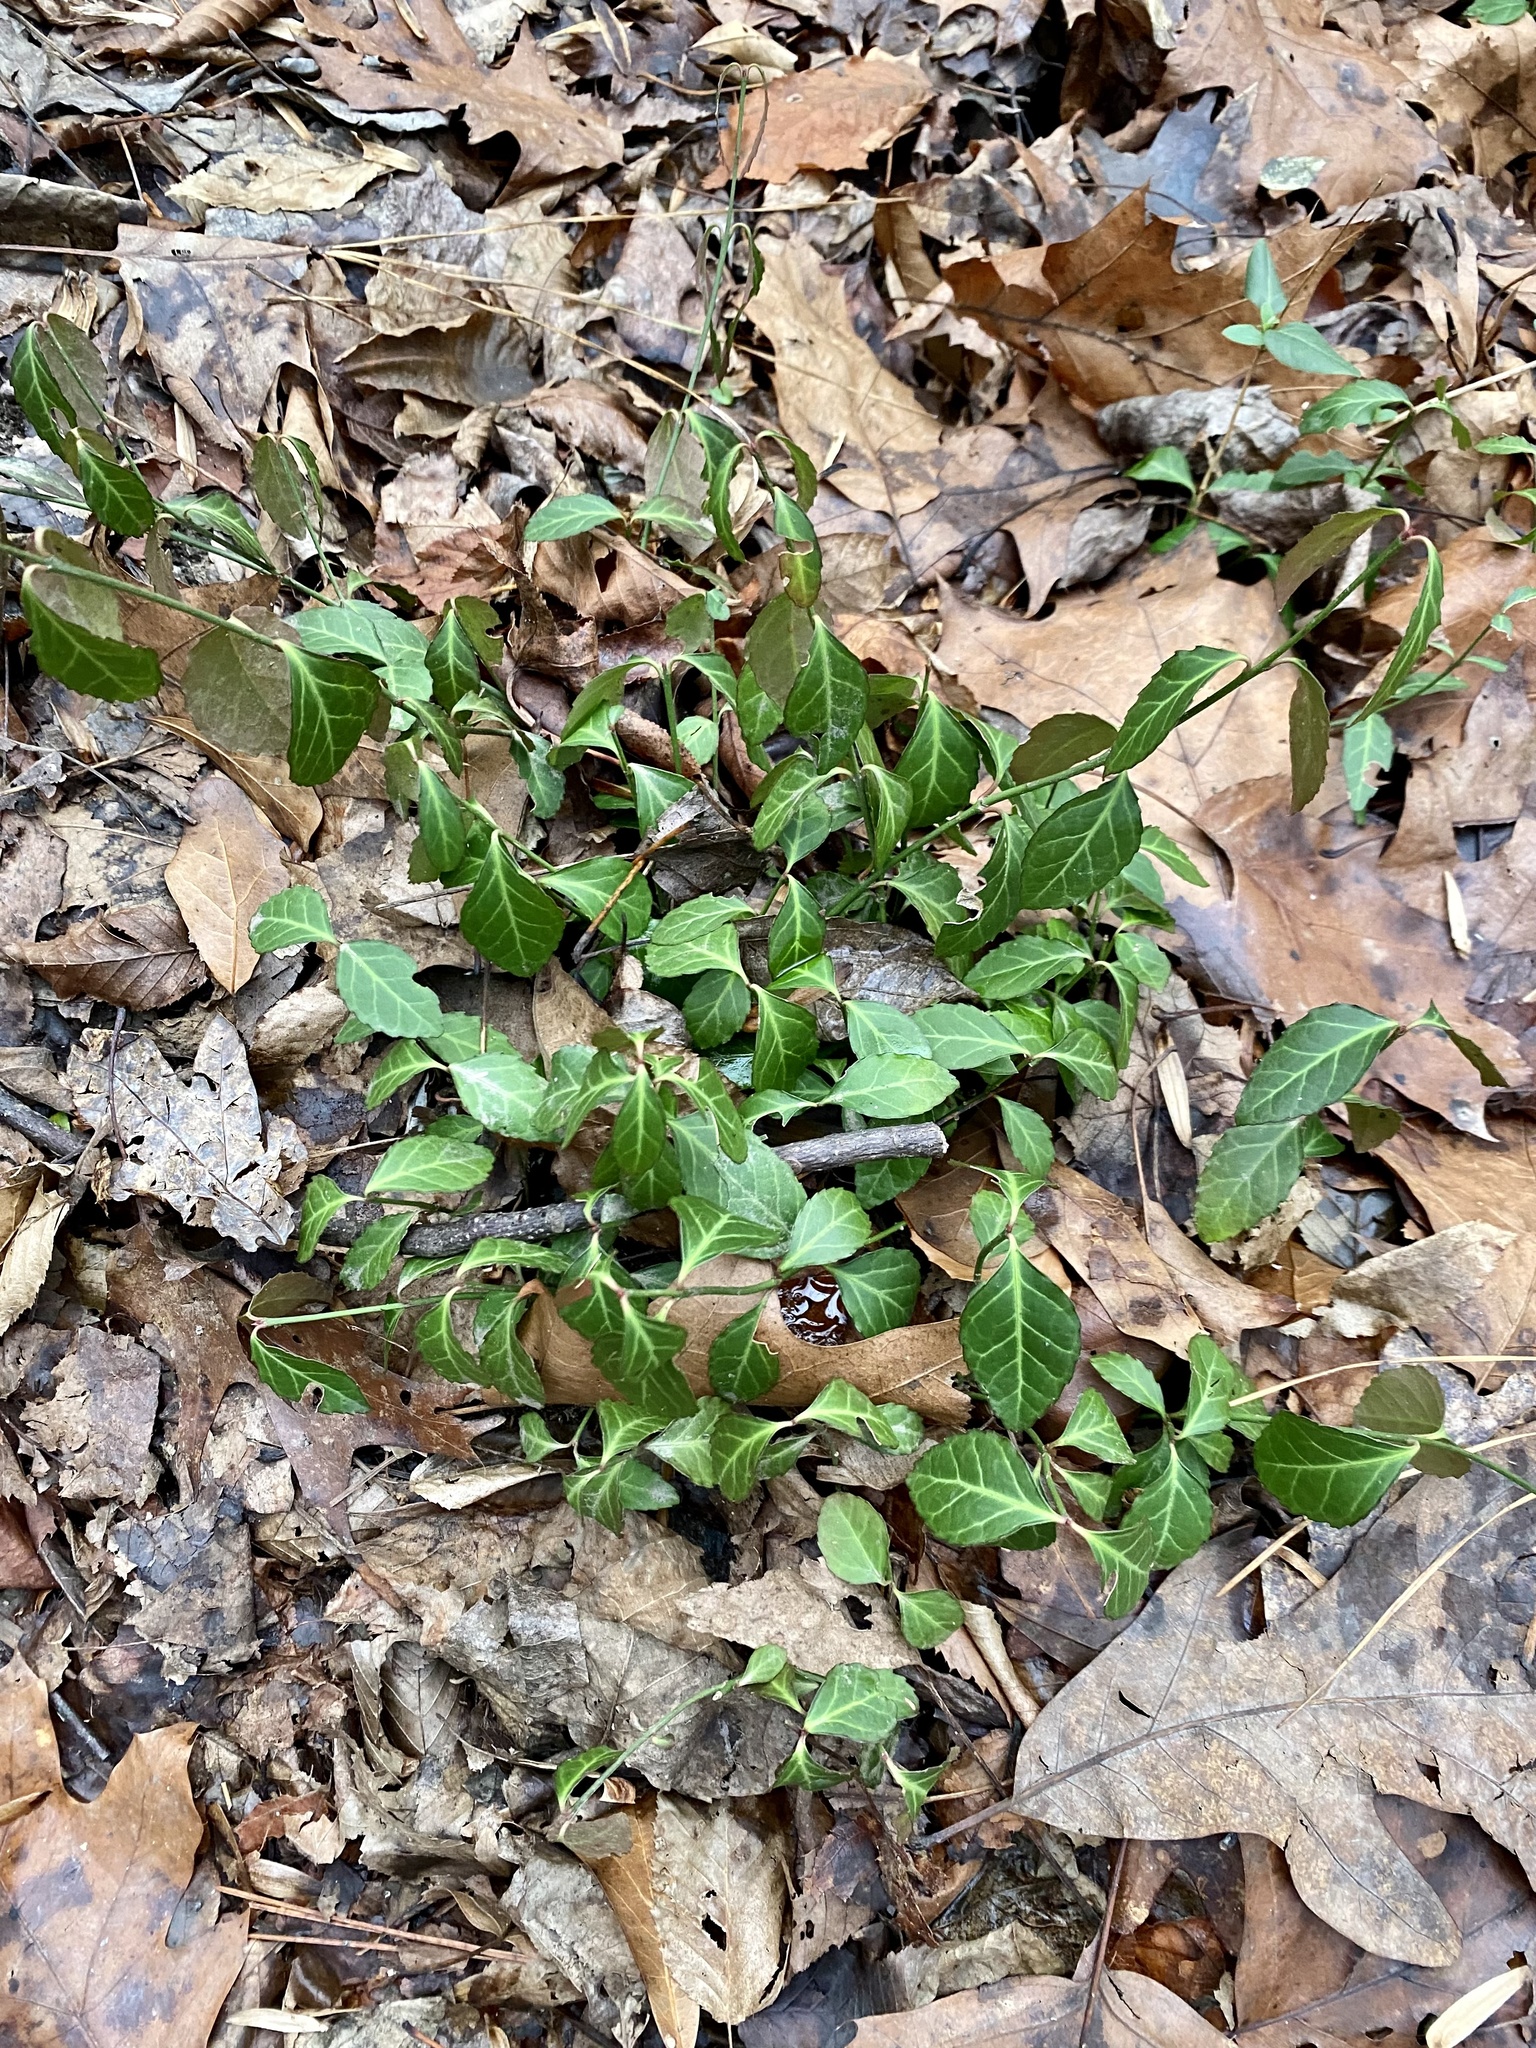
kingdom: Plantae
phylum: Tracheophyta
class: Magnoliopsida
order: Celastrales
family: Celastraceae
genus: Euonymus
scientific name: Euonymus fortunei
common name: Climbing euonymus
